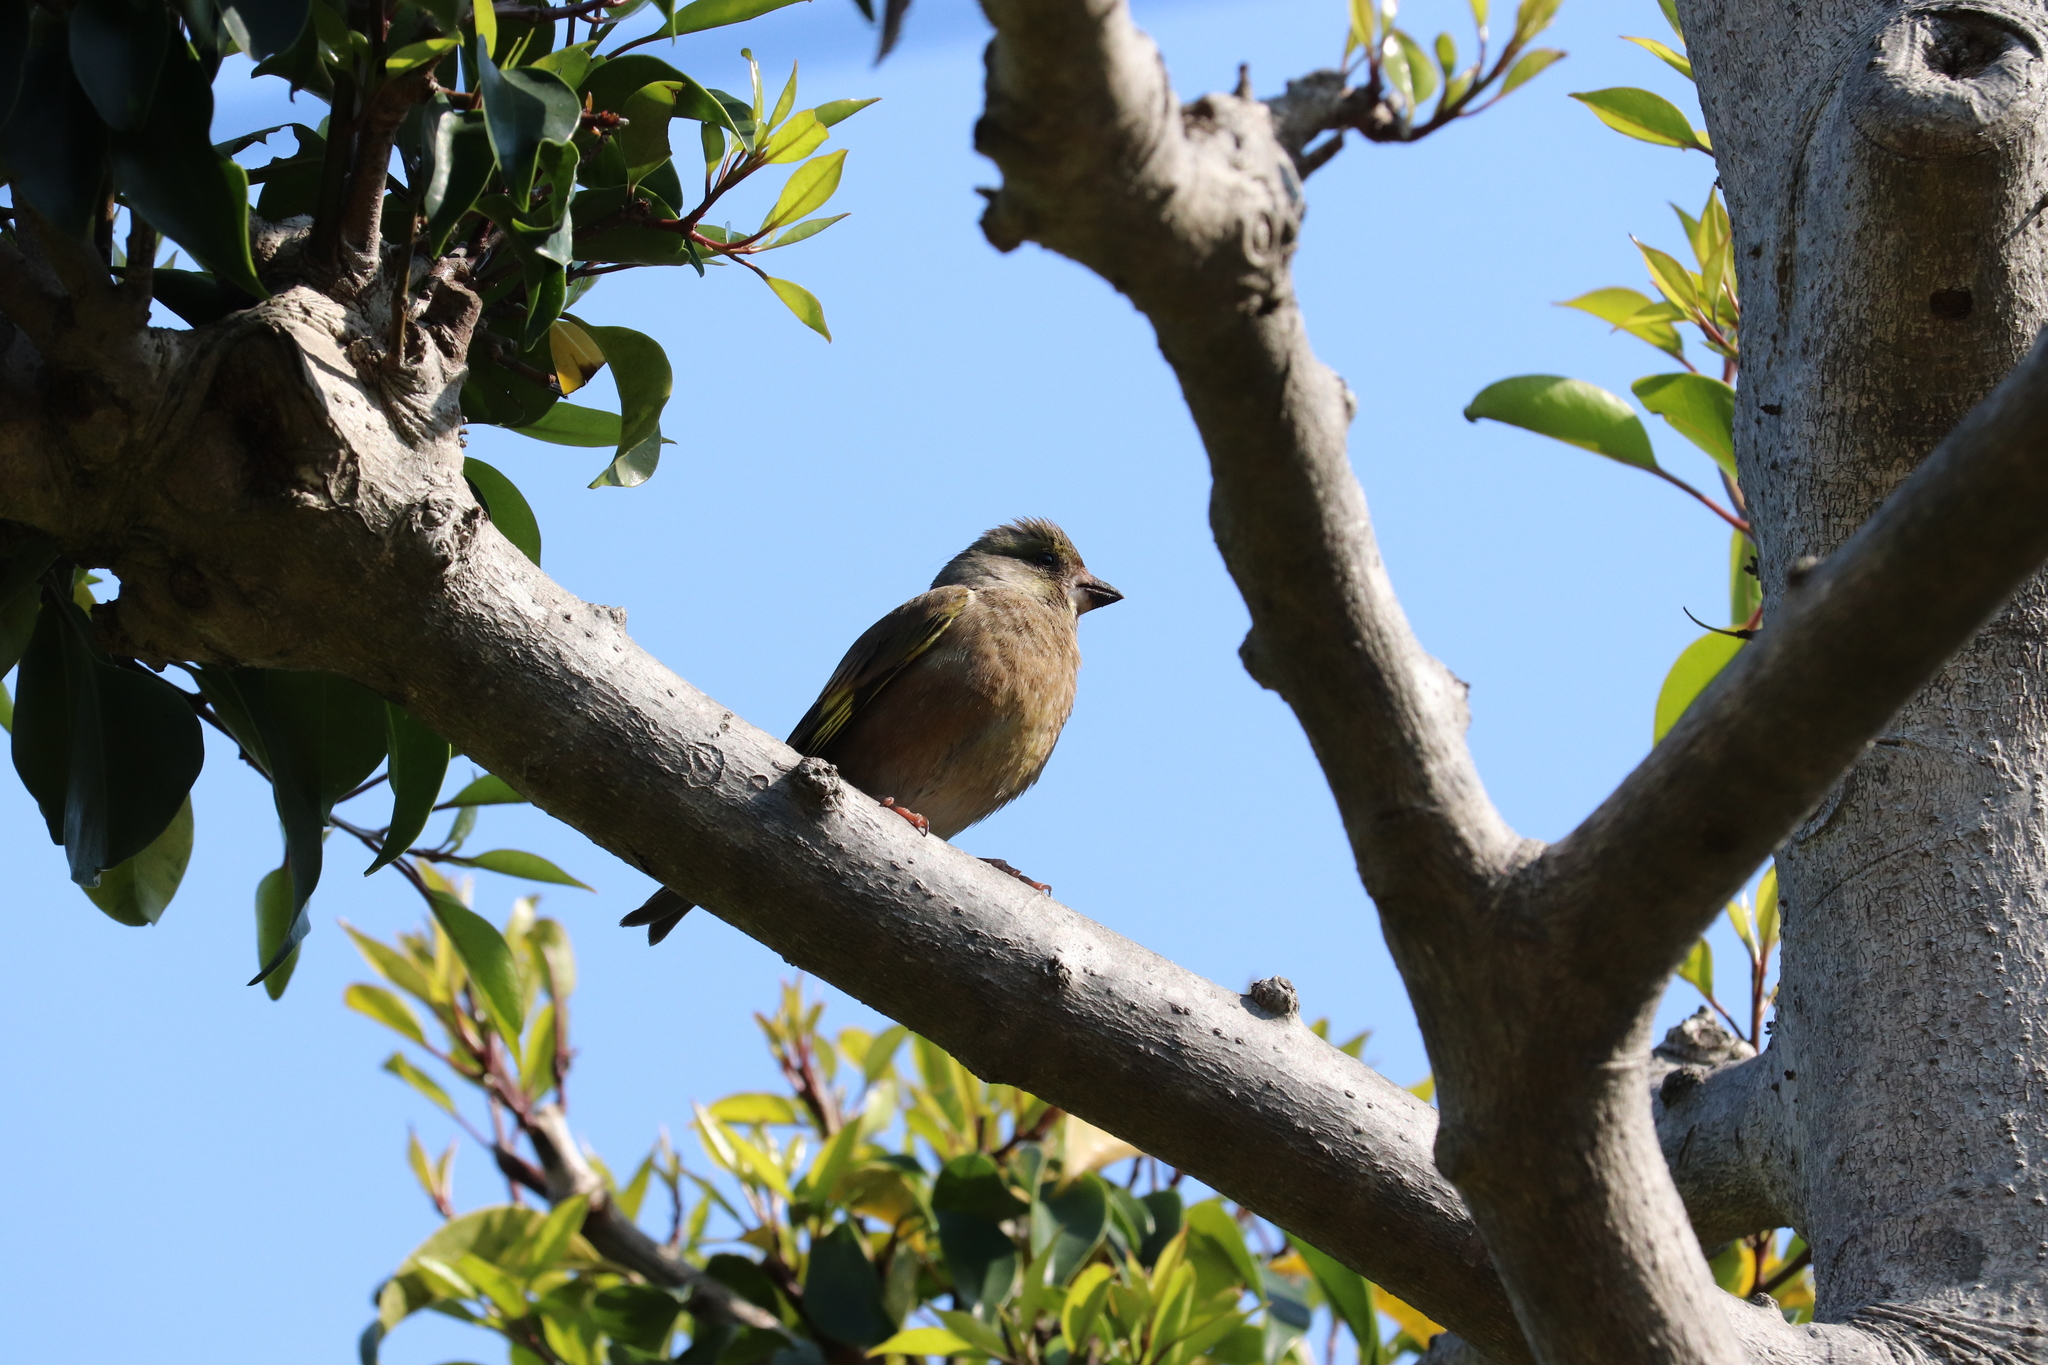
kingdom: Plantae
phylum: Tracheophyta
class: Liliopsida
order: Poales
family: Poaceae
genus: Chloris
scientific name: Chloris sinica
